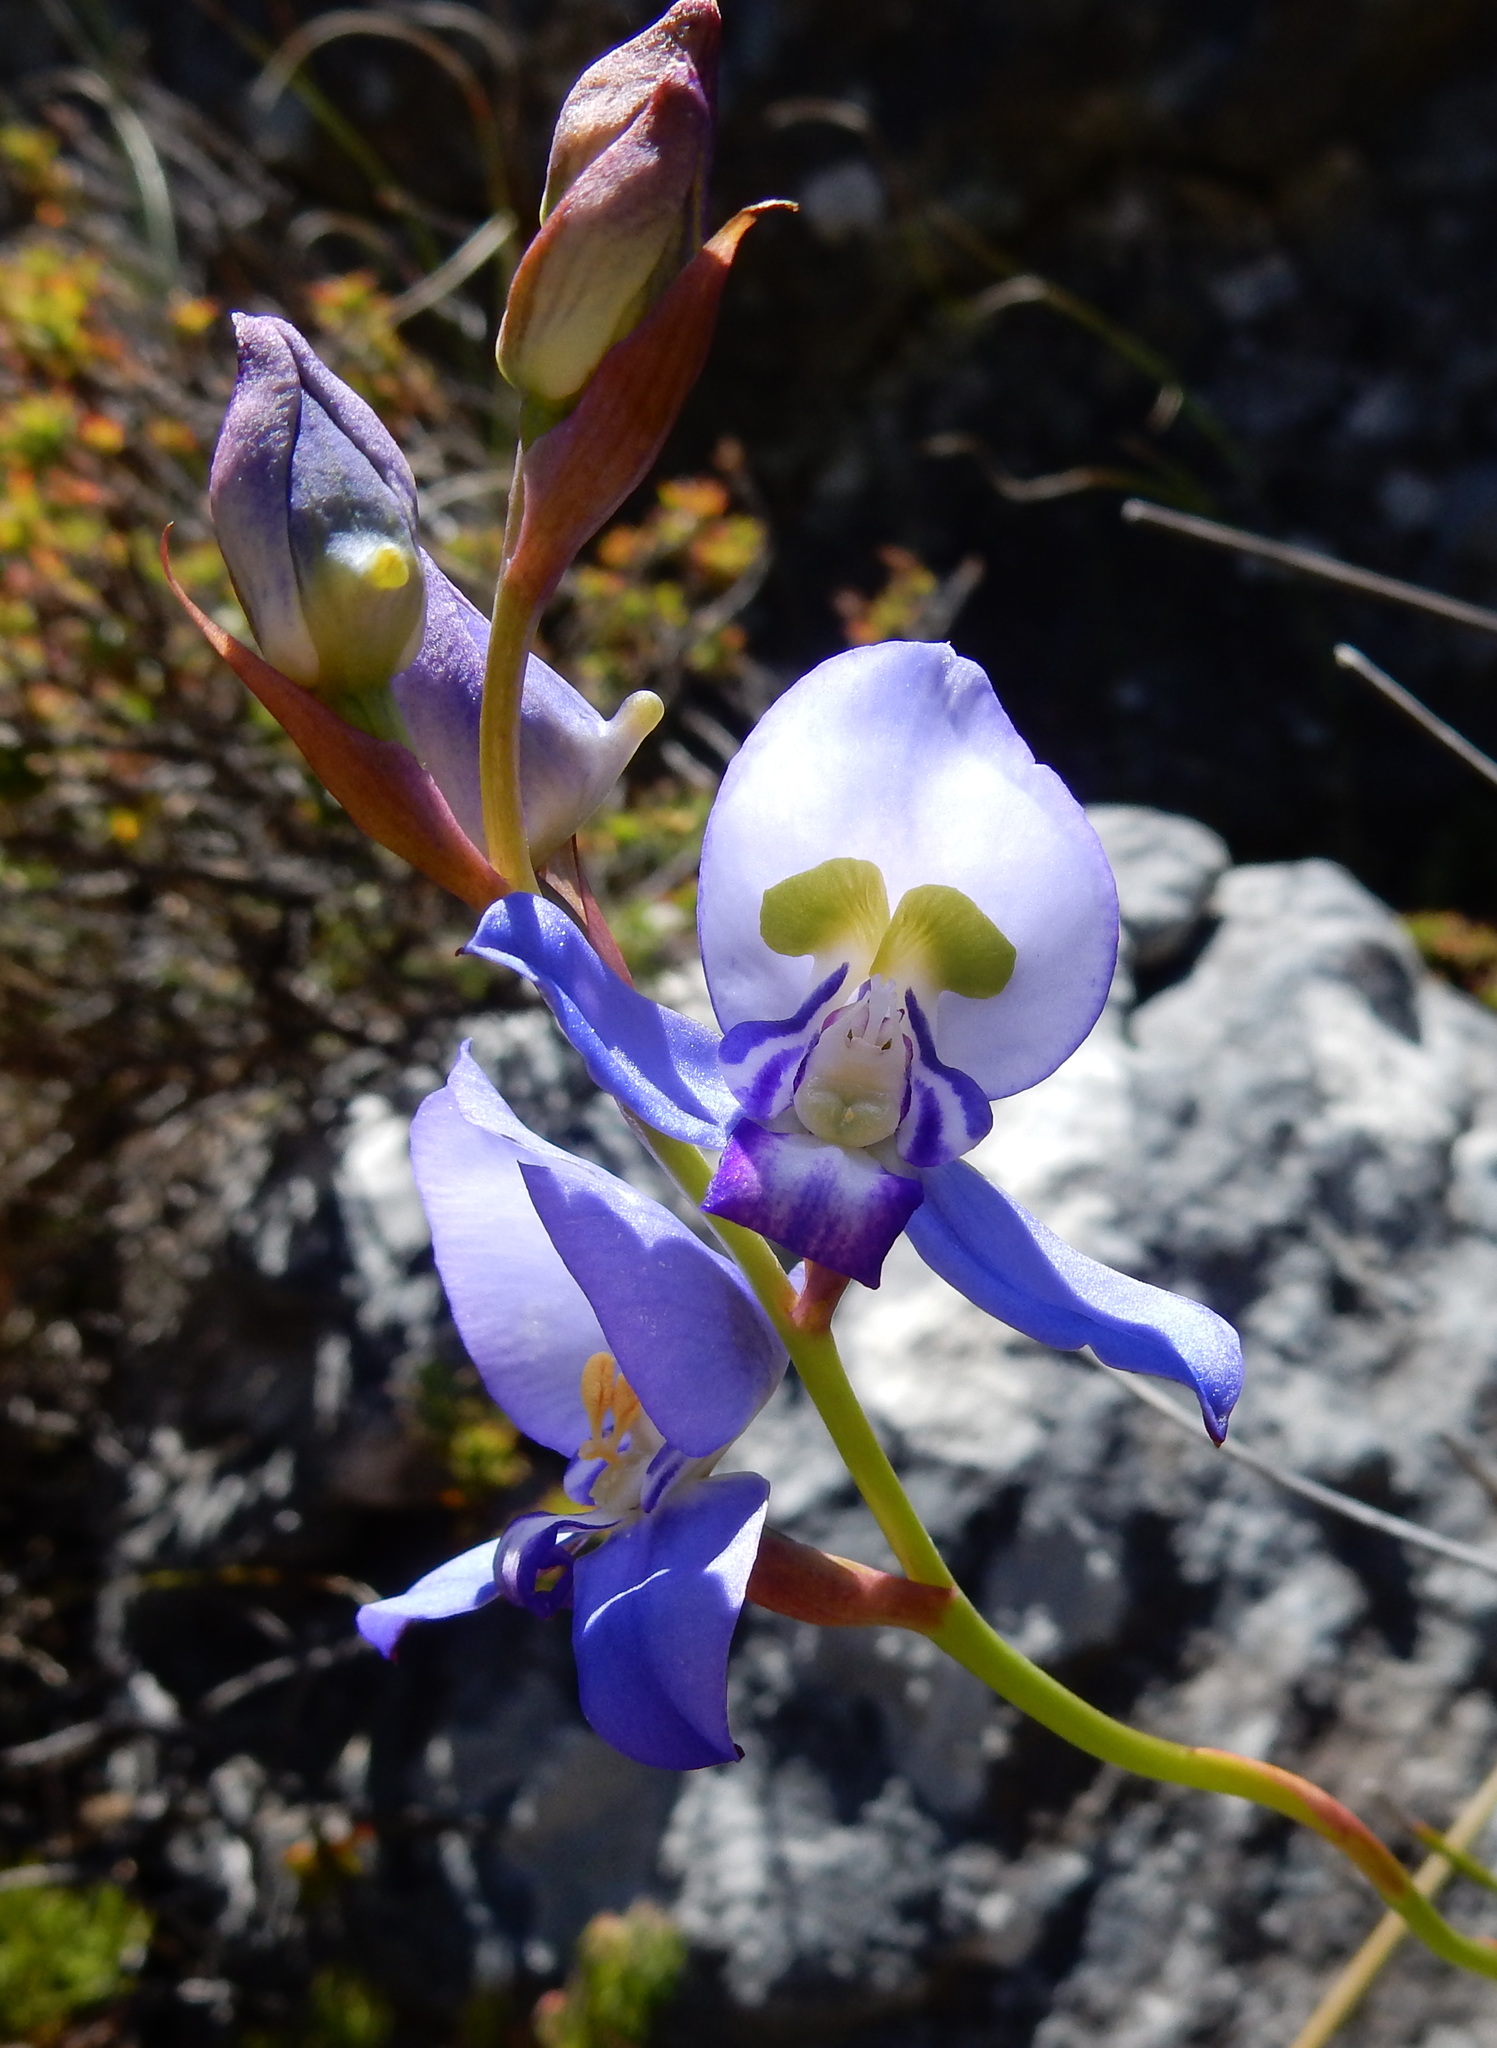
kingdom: Plantae
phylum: Tracheophyta
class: Liliopsida
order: Asparagales
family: Orchidaceae
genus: Disa
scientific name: Disa graminifolia
